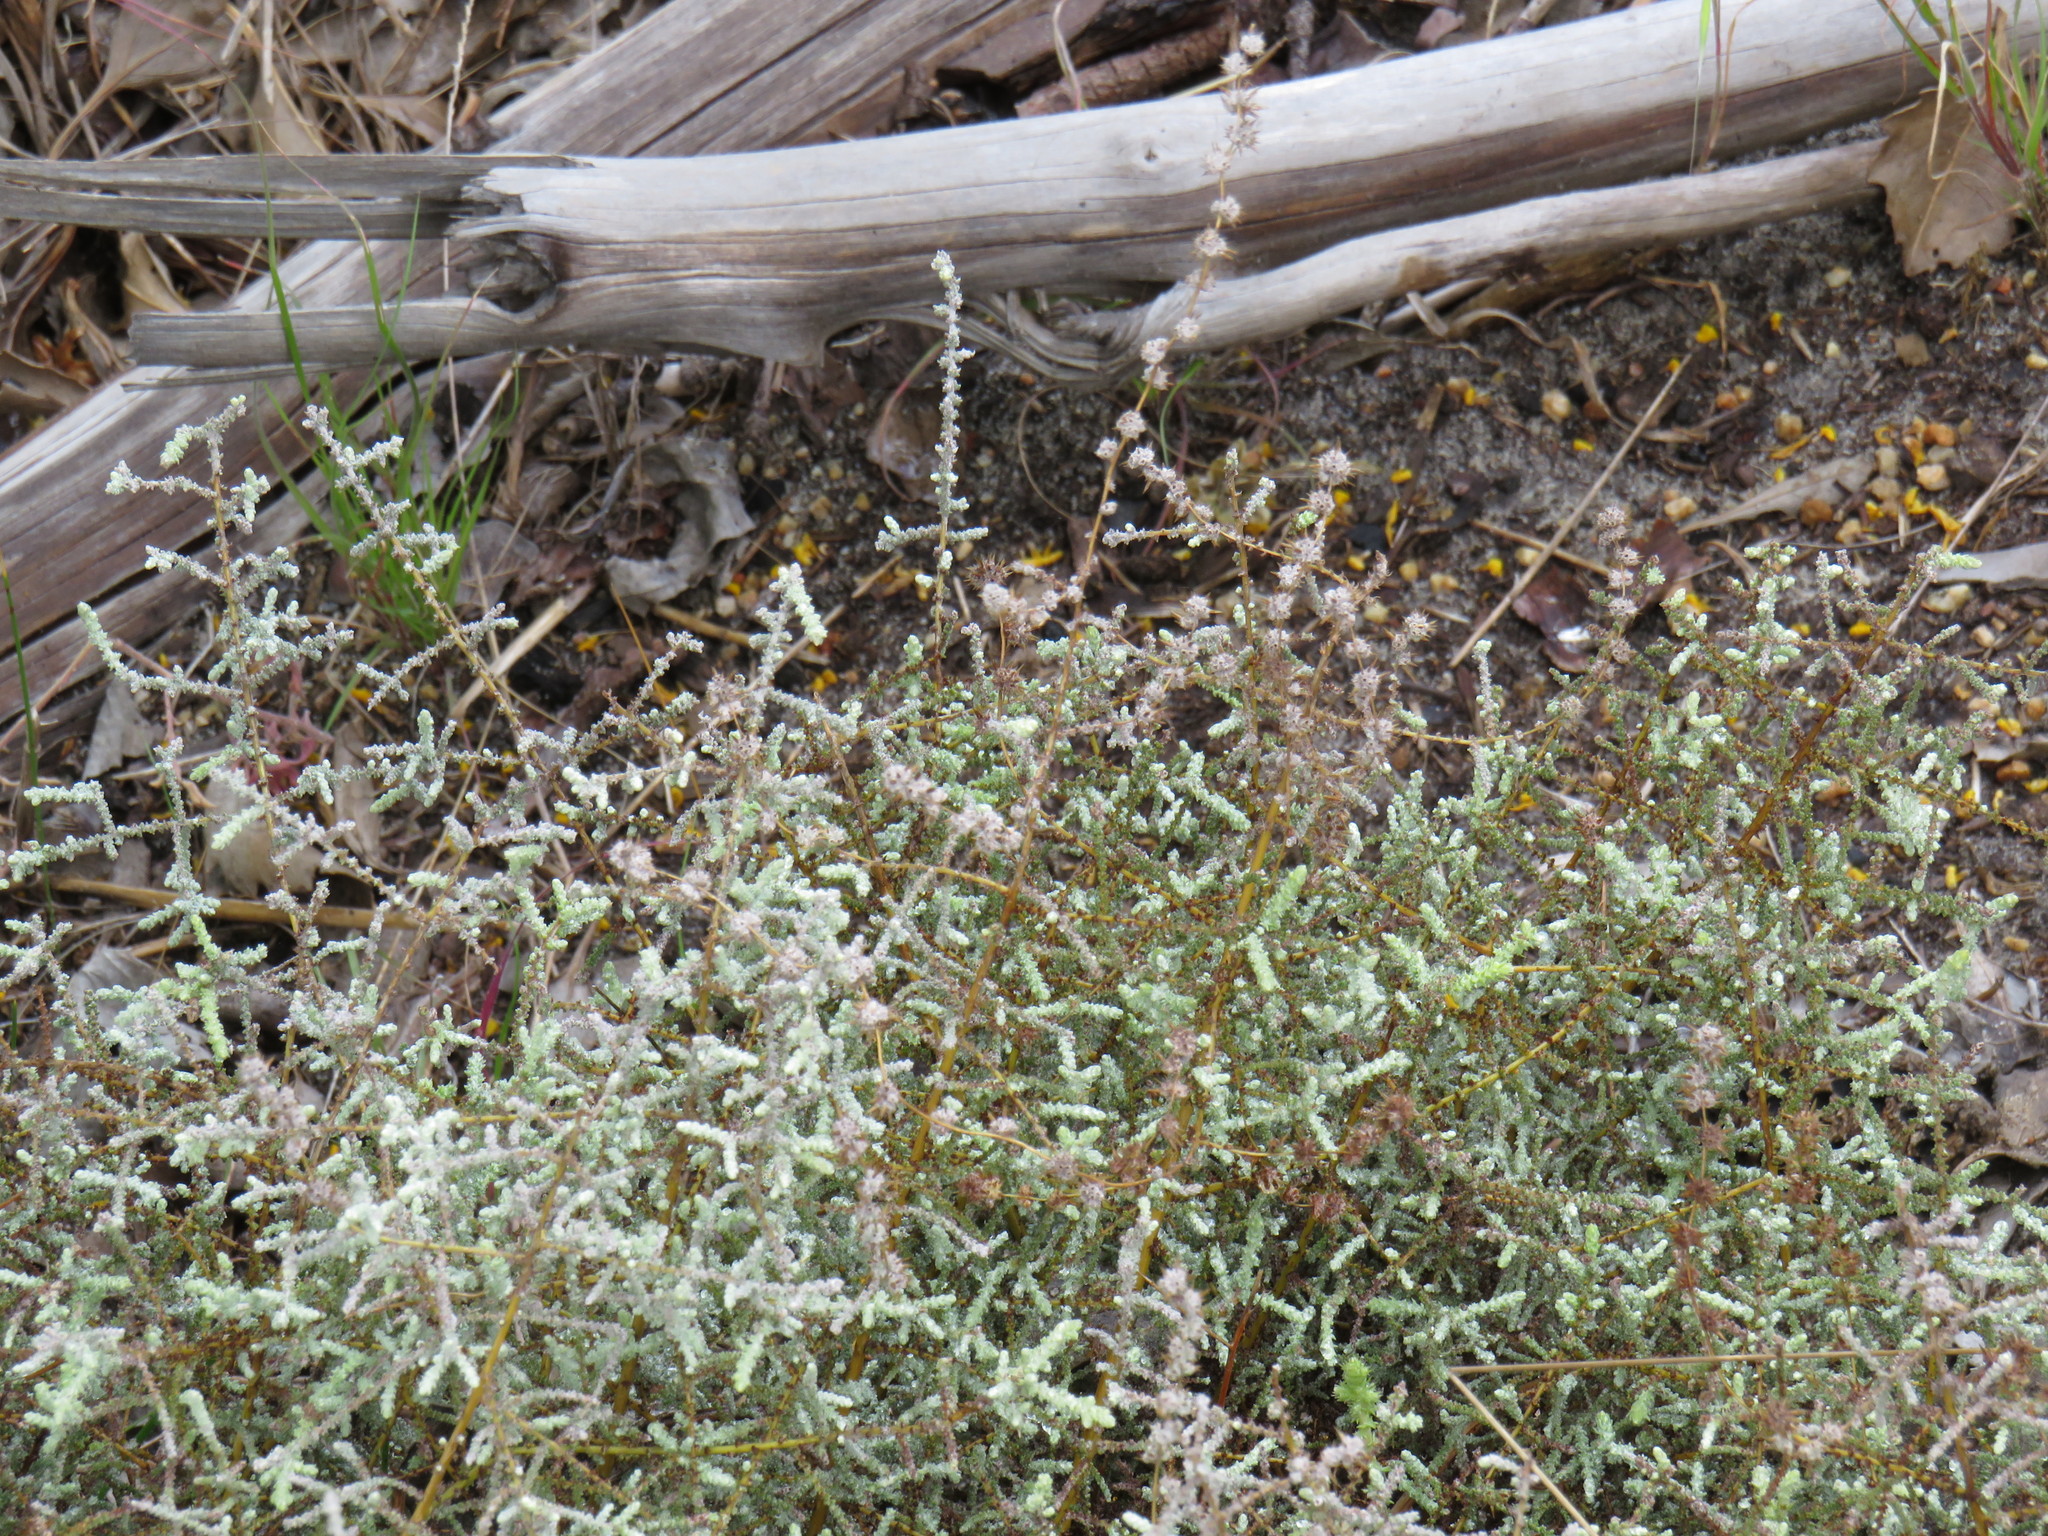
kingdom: Plantae
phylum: Tracheophyta
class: Magnoliopsida
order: Asterales
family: Asteraceae
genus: Seriphium
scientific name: Seriphium plumosum
